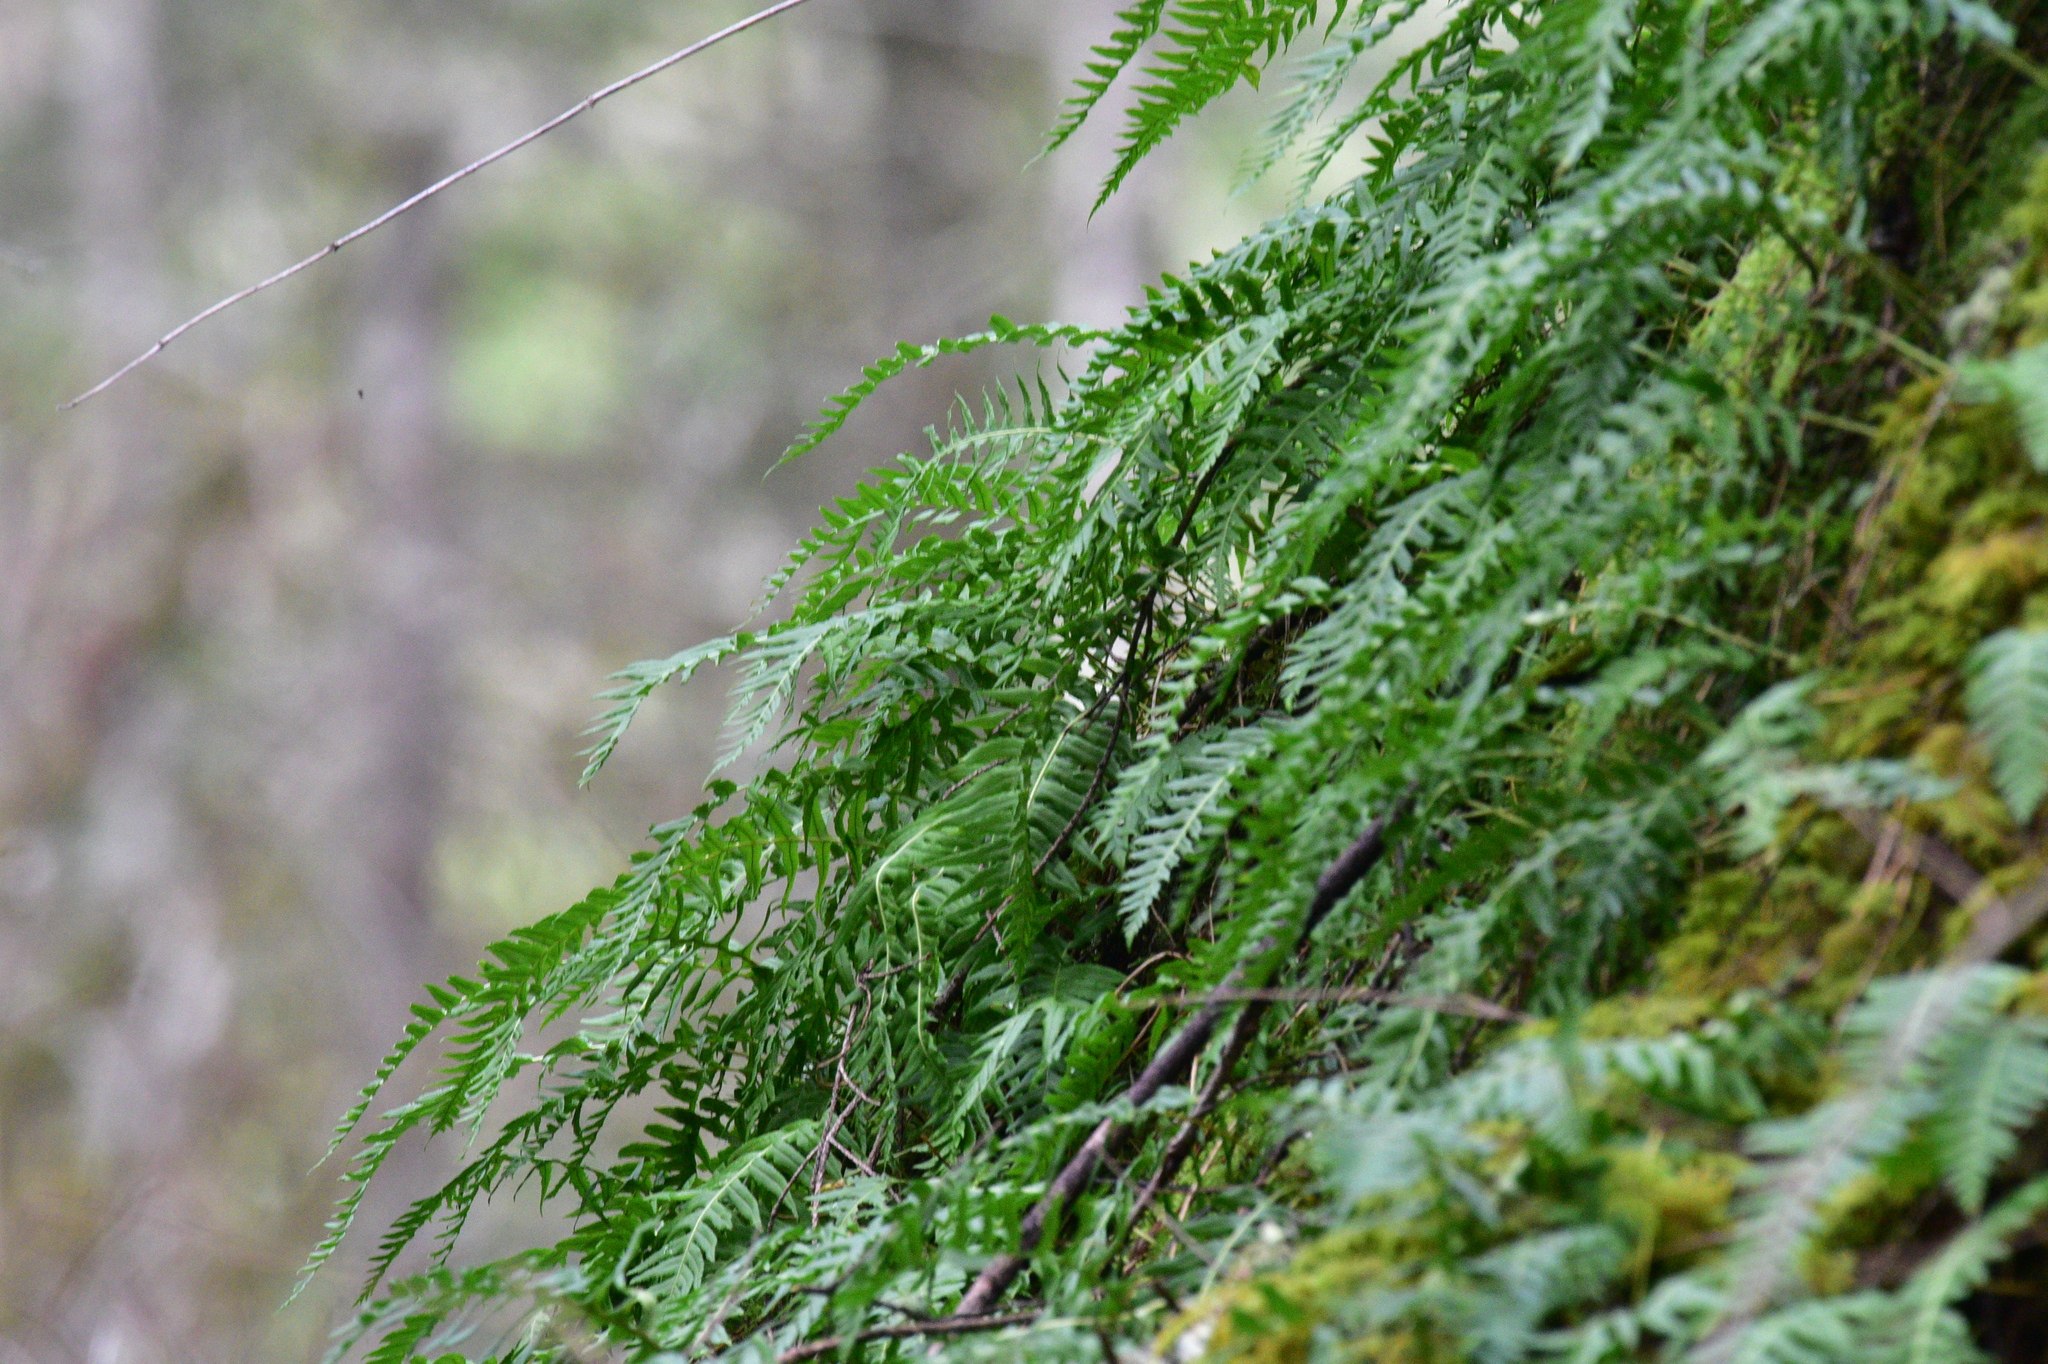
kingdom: Plantae
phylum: Tracheophyta
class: Polypodiopsida
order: Polypodiales
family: Polypodiaceae
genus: Polypodium
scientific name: Polypodium glycyrrhiza
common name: Licorice fern
